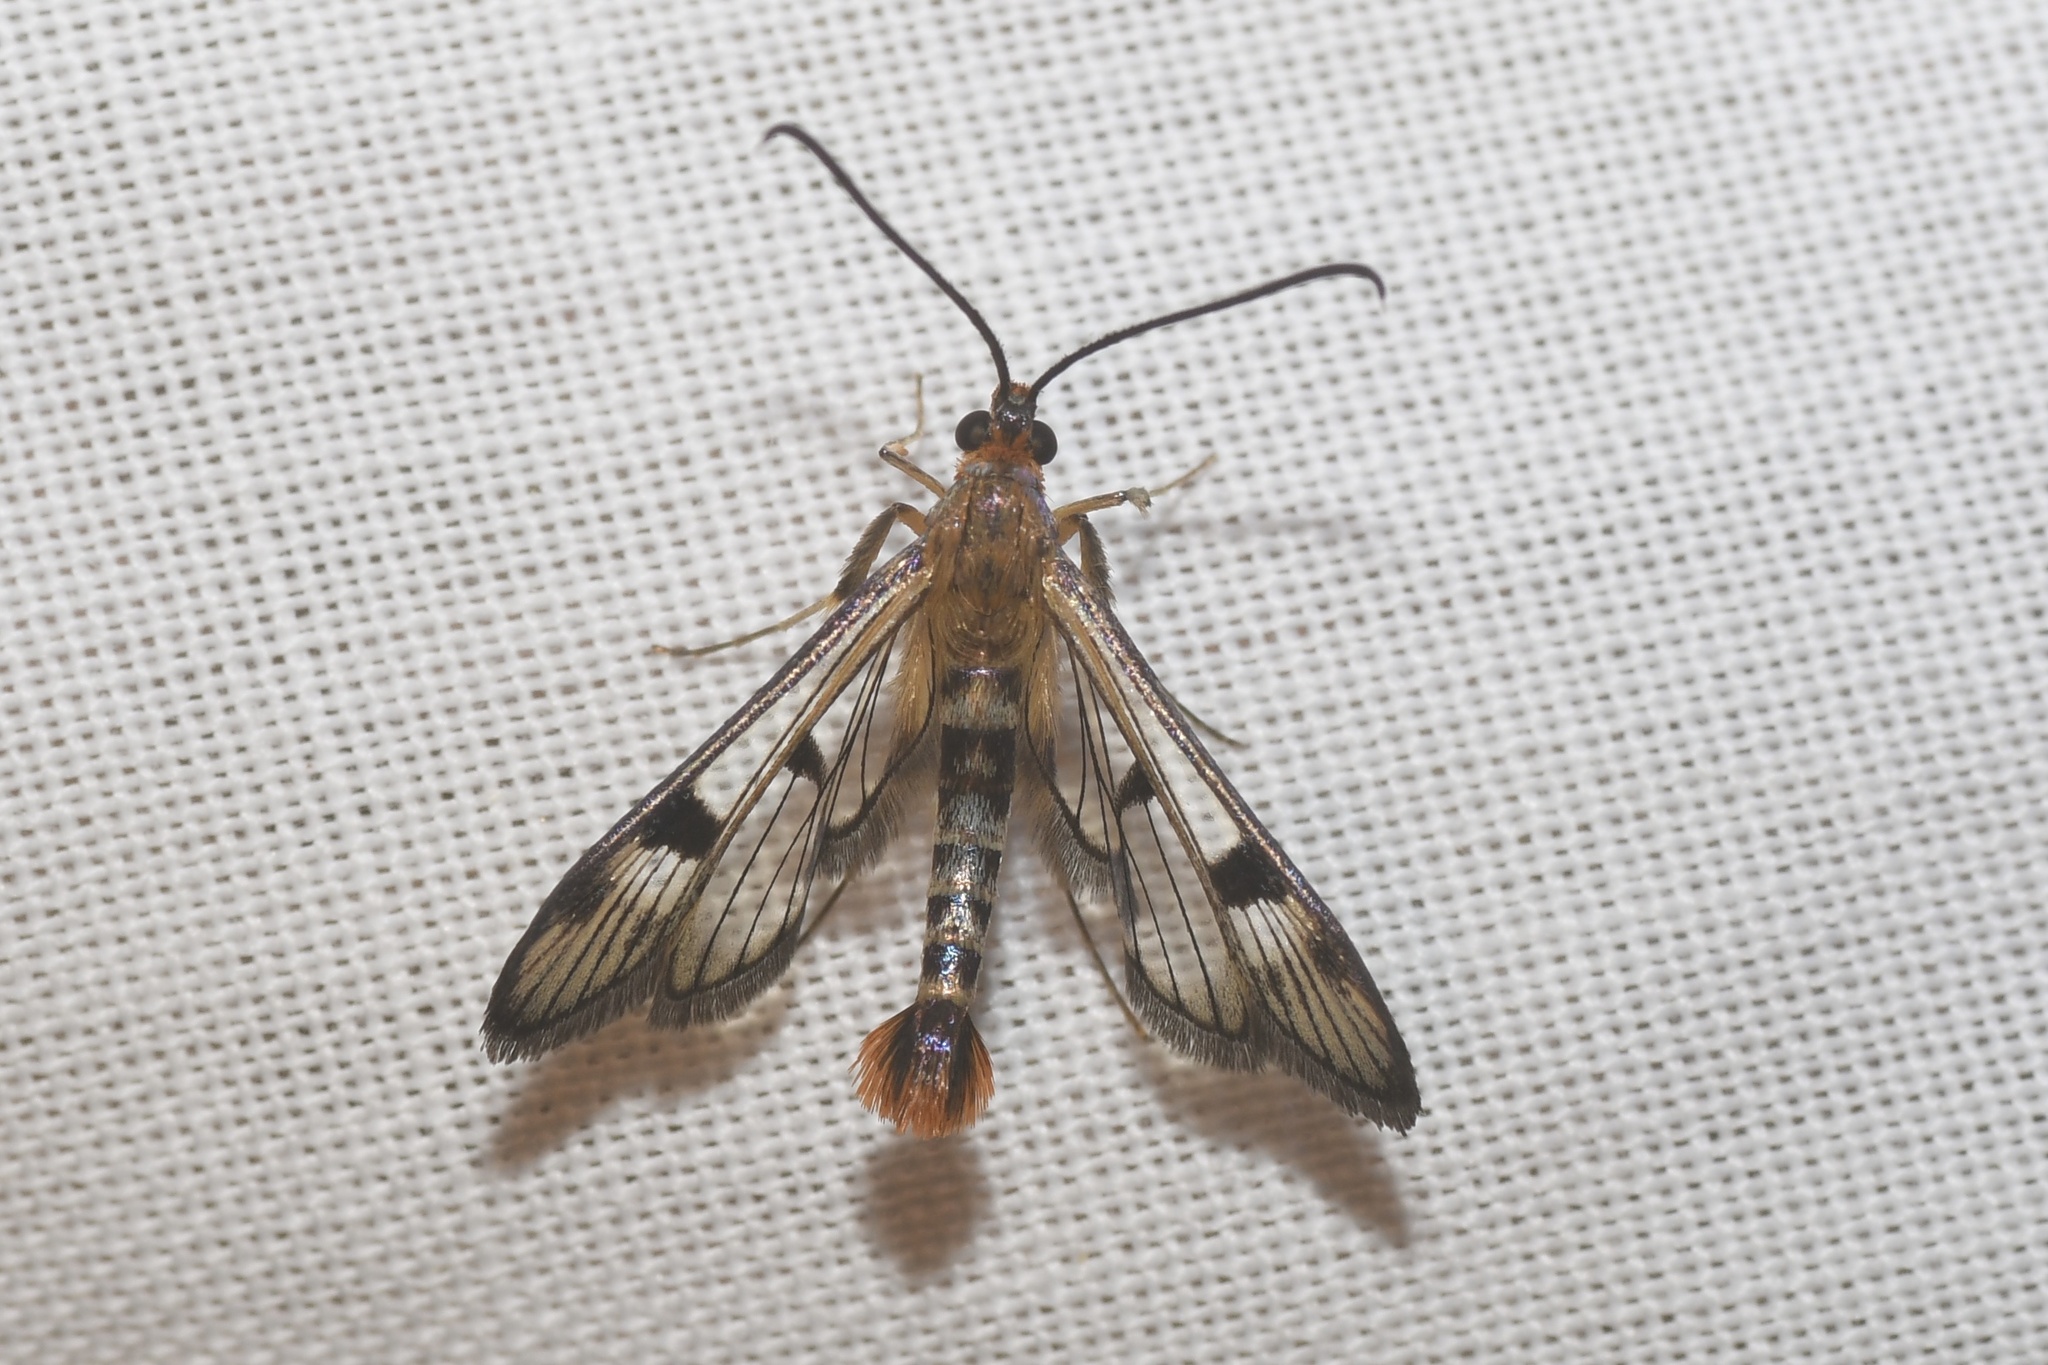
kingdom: Animalia
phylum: Arthropoda
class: Insecta
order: Lepidoptera
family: Sesiidae
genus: Synanthedon
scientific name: Synanthedon acerni
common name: Maple callus borer moth
